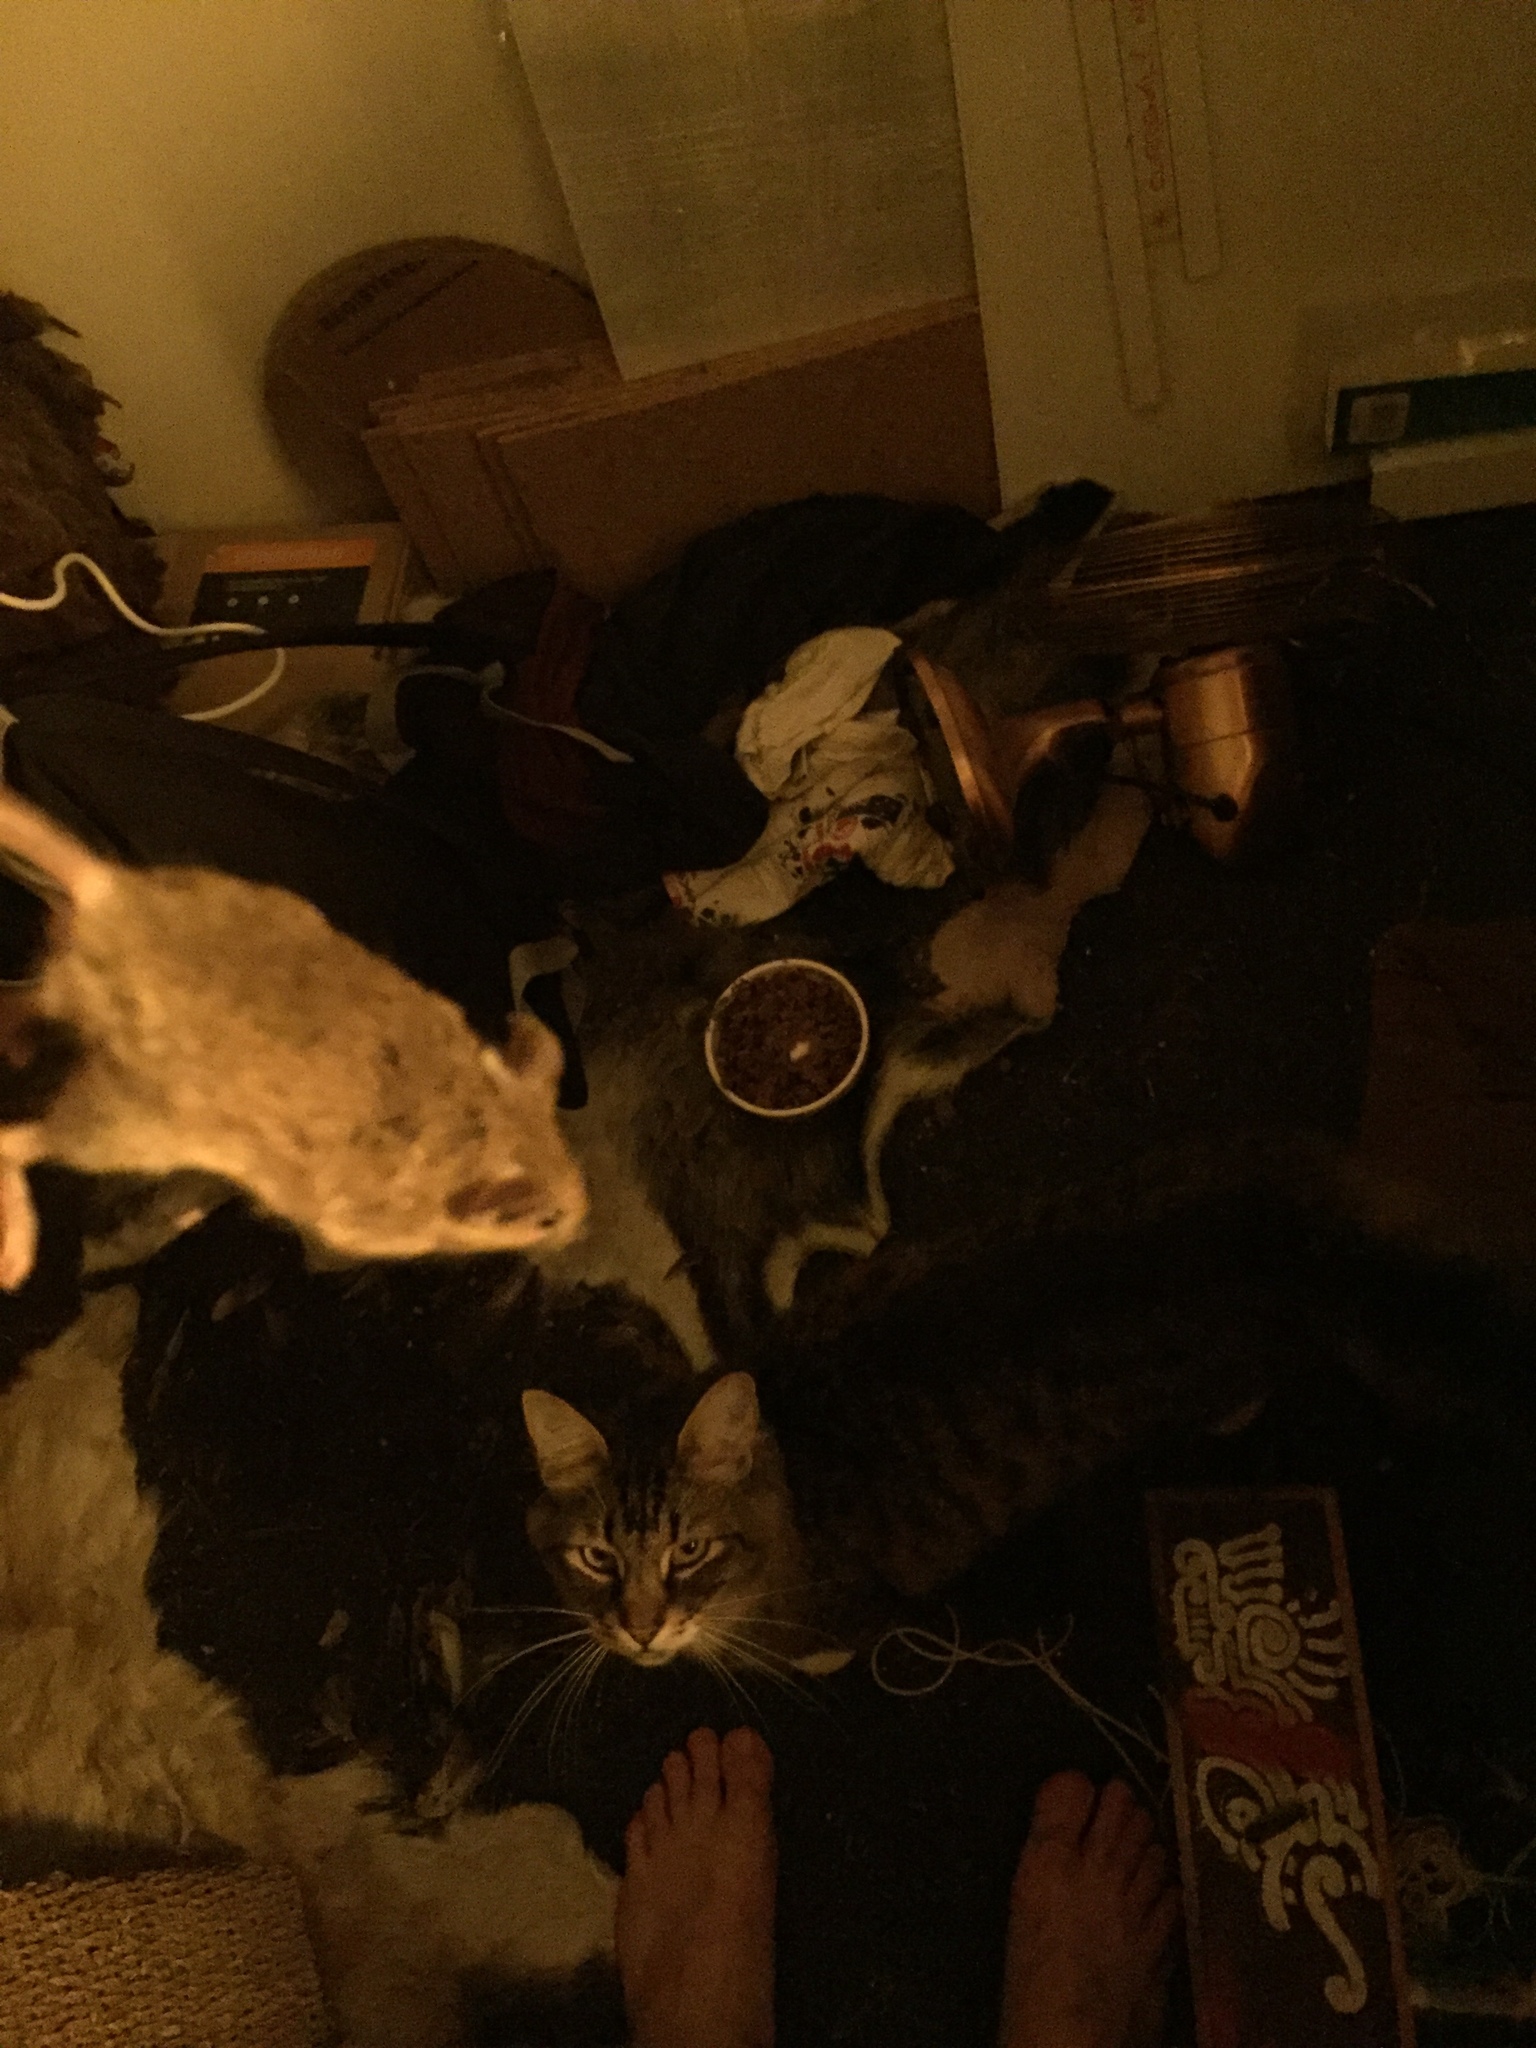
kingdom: Animalia
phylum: Chordata
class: Mammalia
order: Rodentia
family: Muridae
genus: Mus
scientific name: Mus musculus
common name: House mouse
